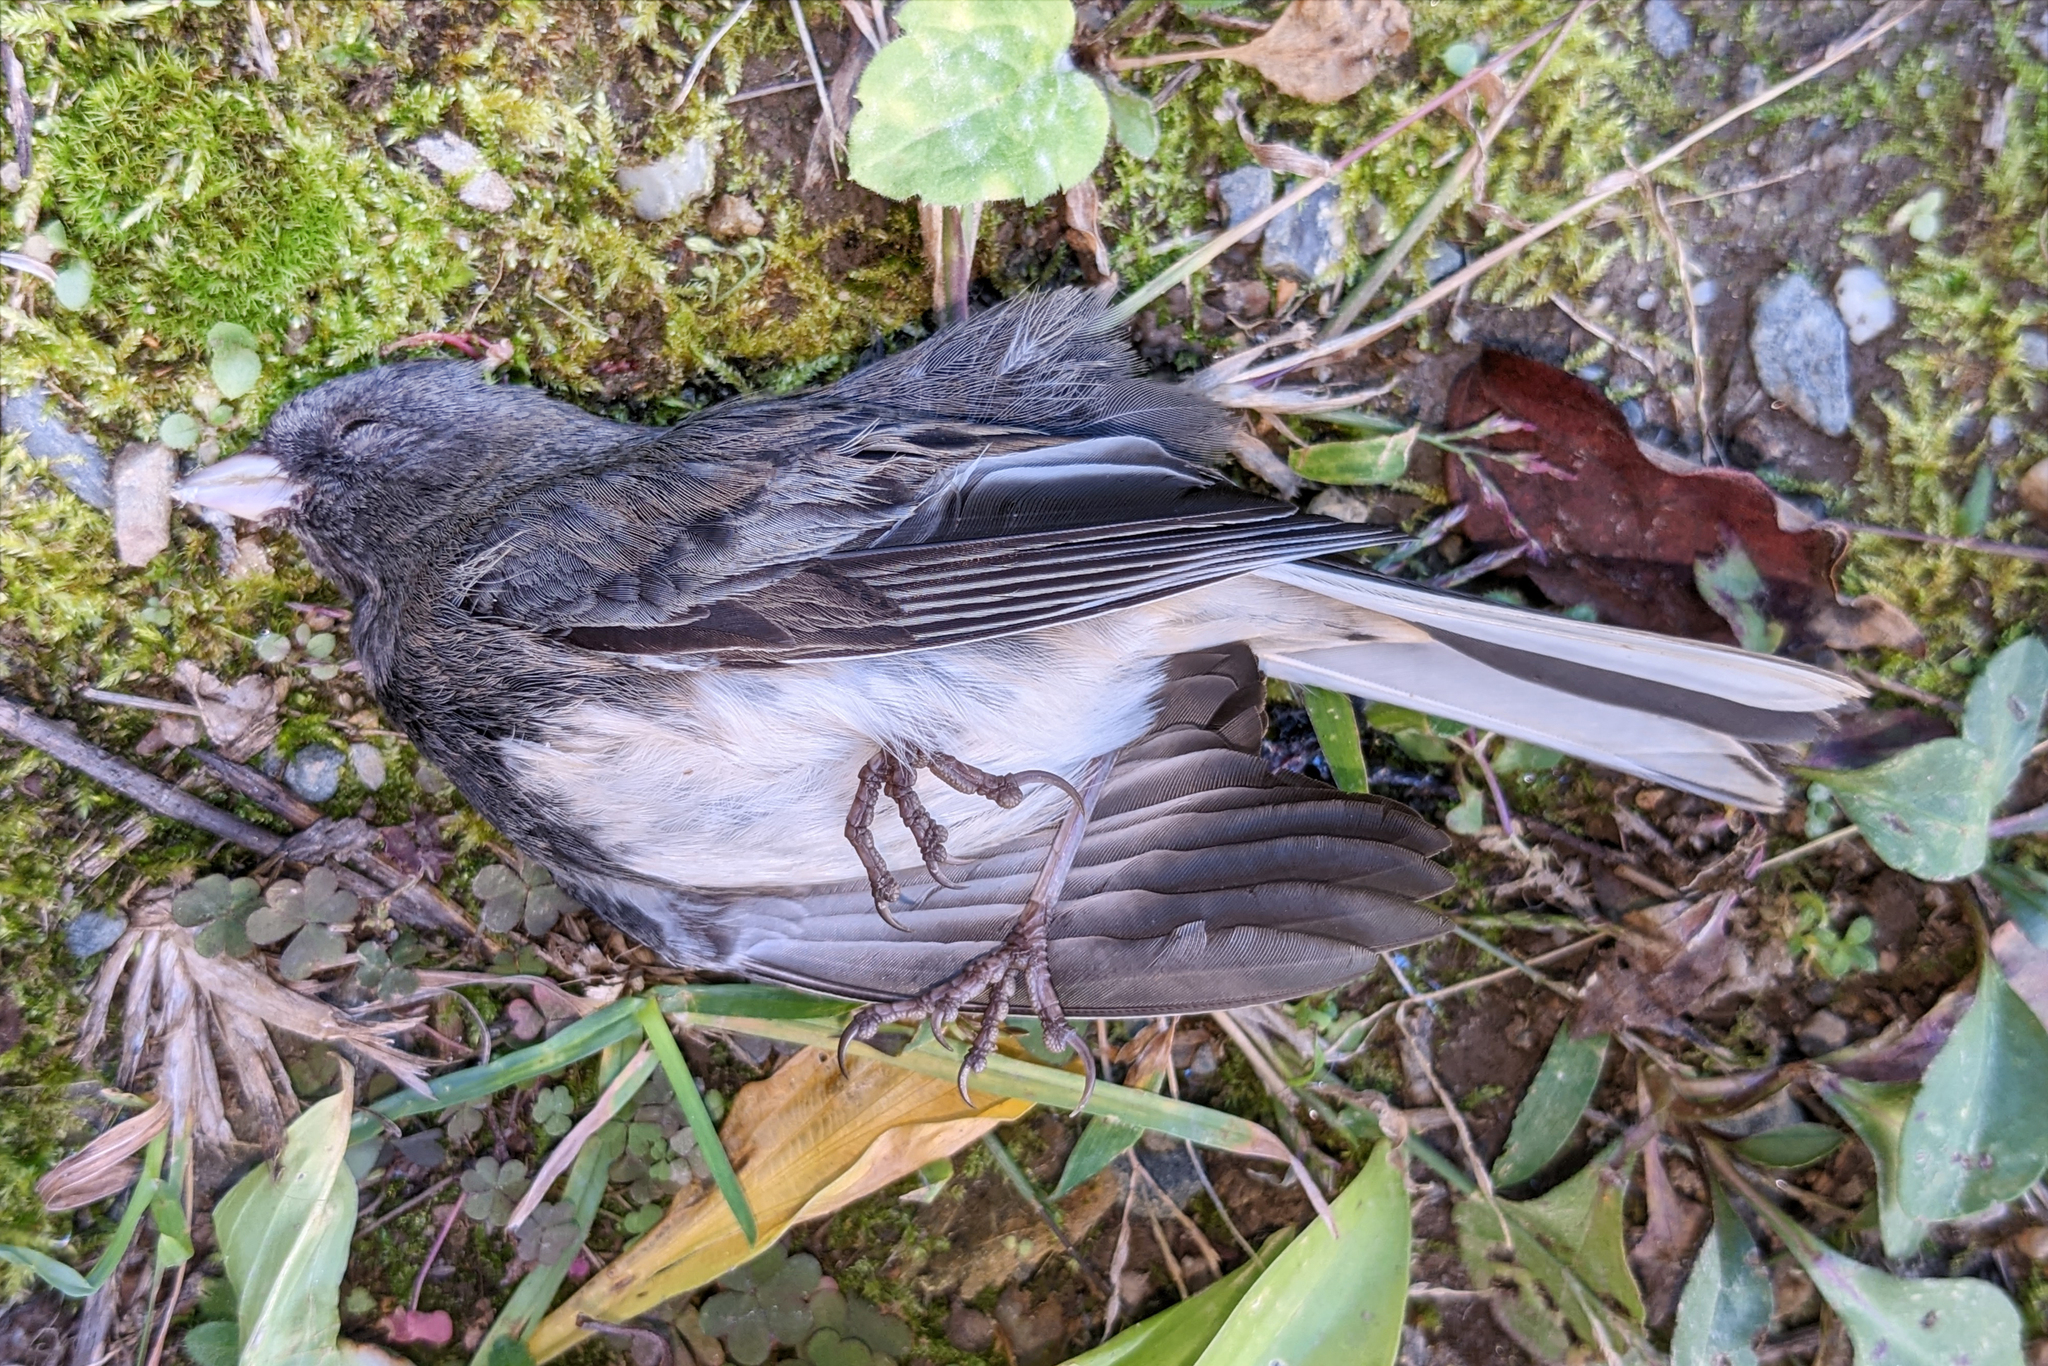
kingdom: Animalia
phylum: Chordata
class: Aves
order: Passeriformes
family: Passerellidae
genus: Junco
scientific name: Junco hyemalis
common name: Dark-eyed junco
